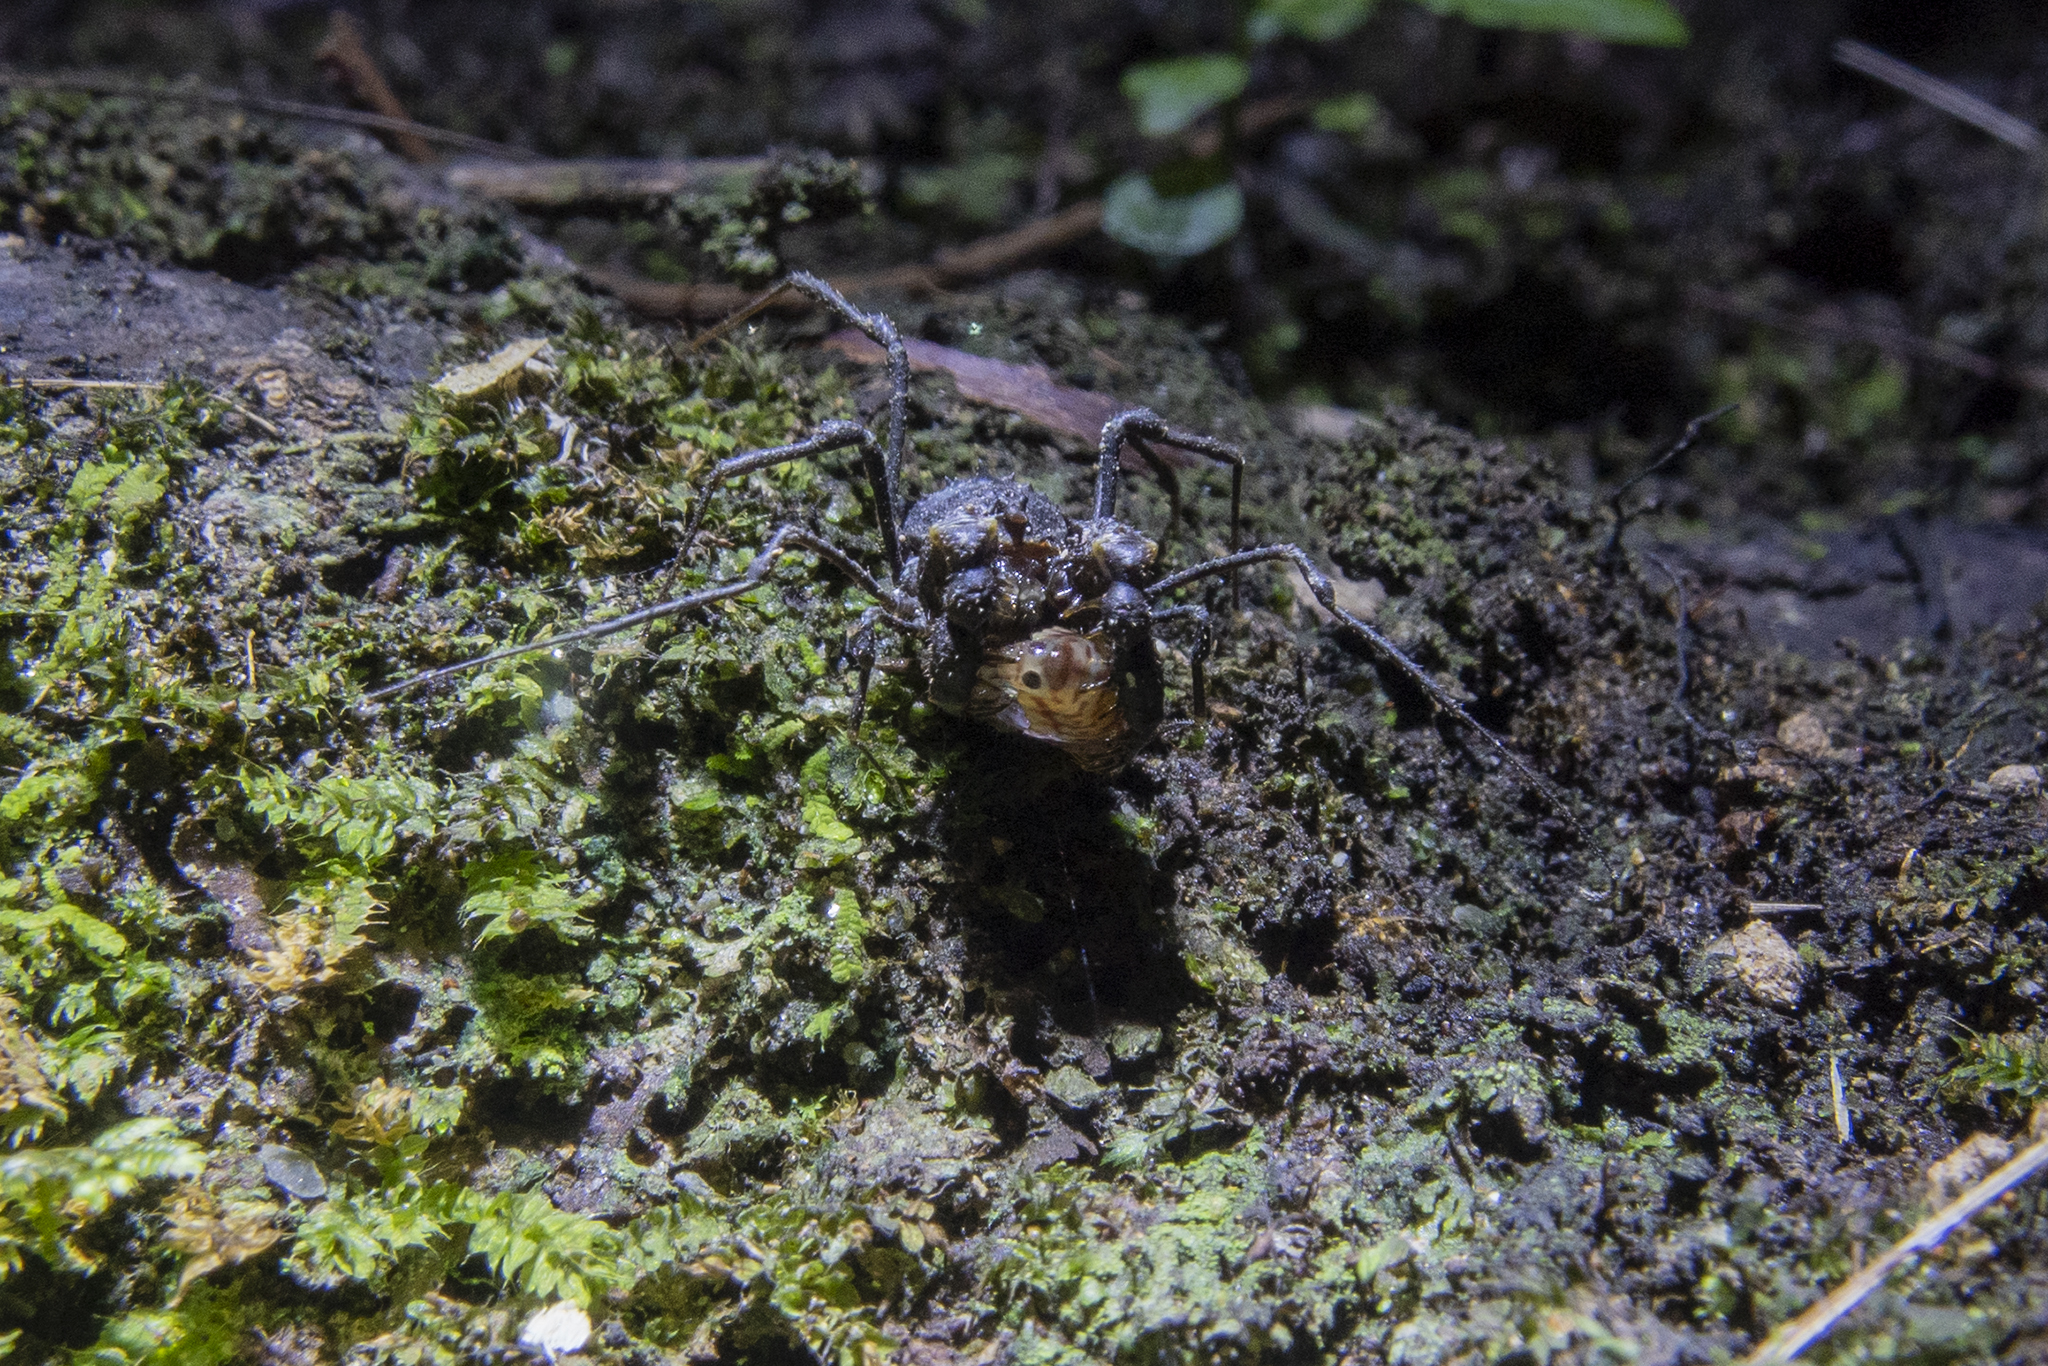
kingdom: Animalia
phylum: Arthropoda
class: Arachnida
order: Opiliones
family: Triaenonychidae
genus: Karamea
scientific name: Karamea lobata
